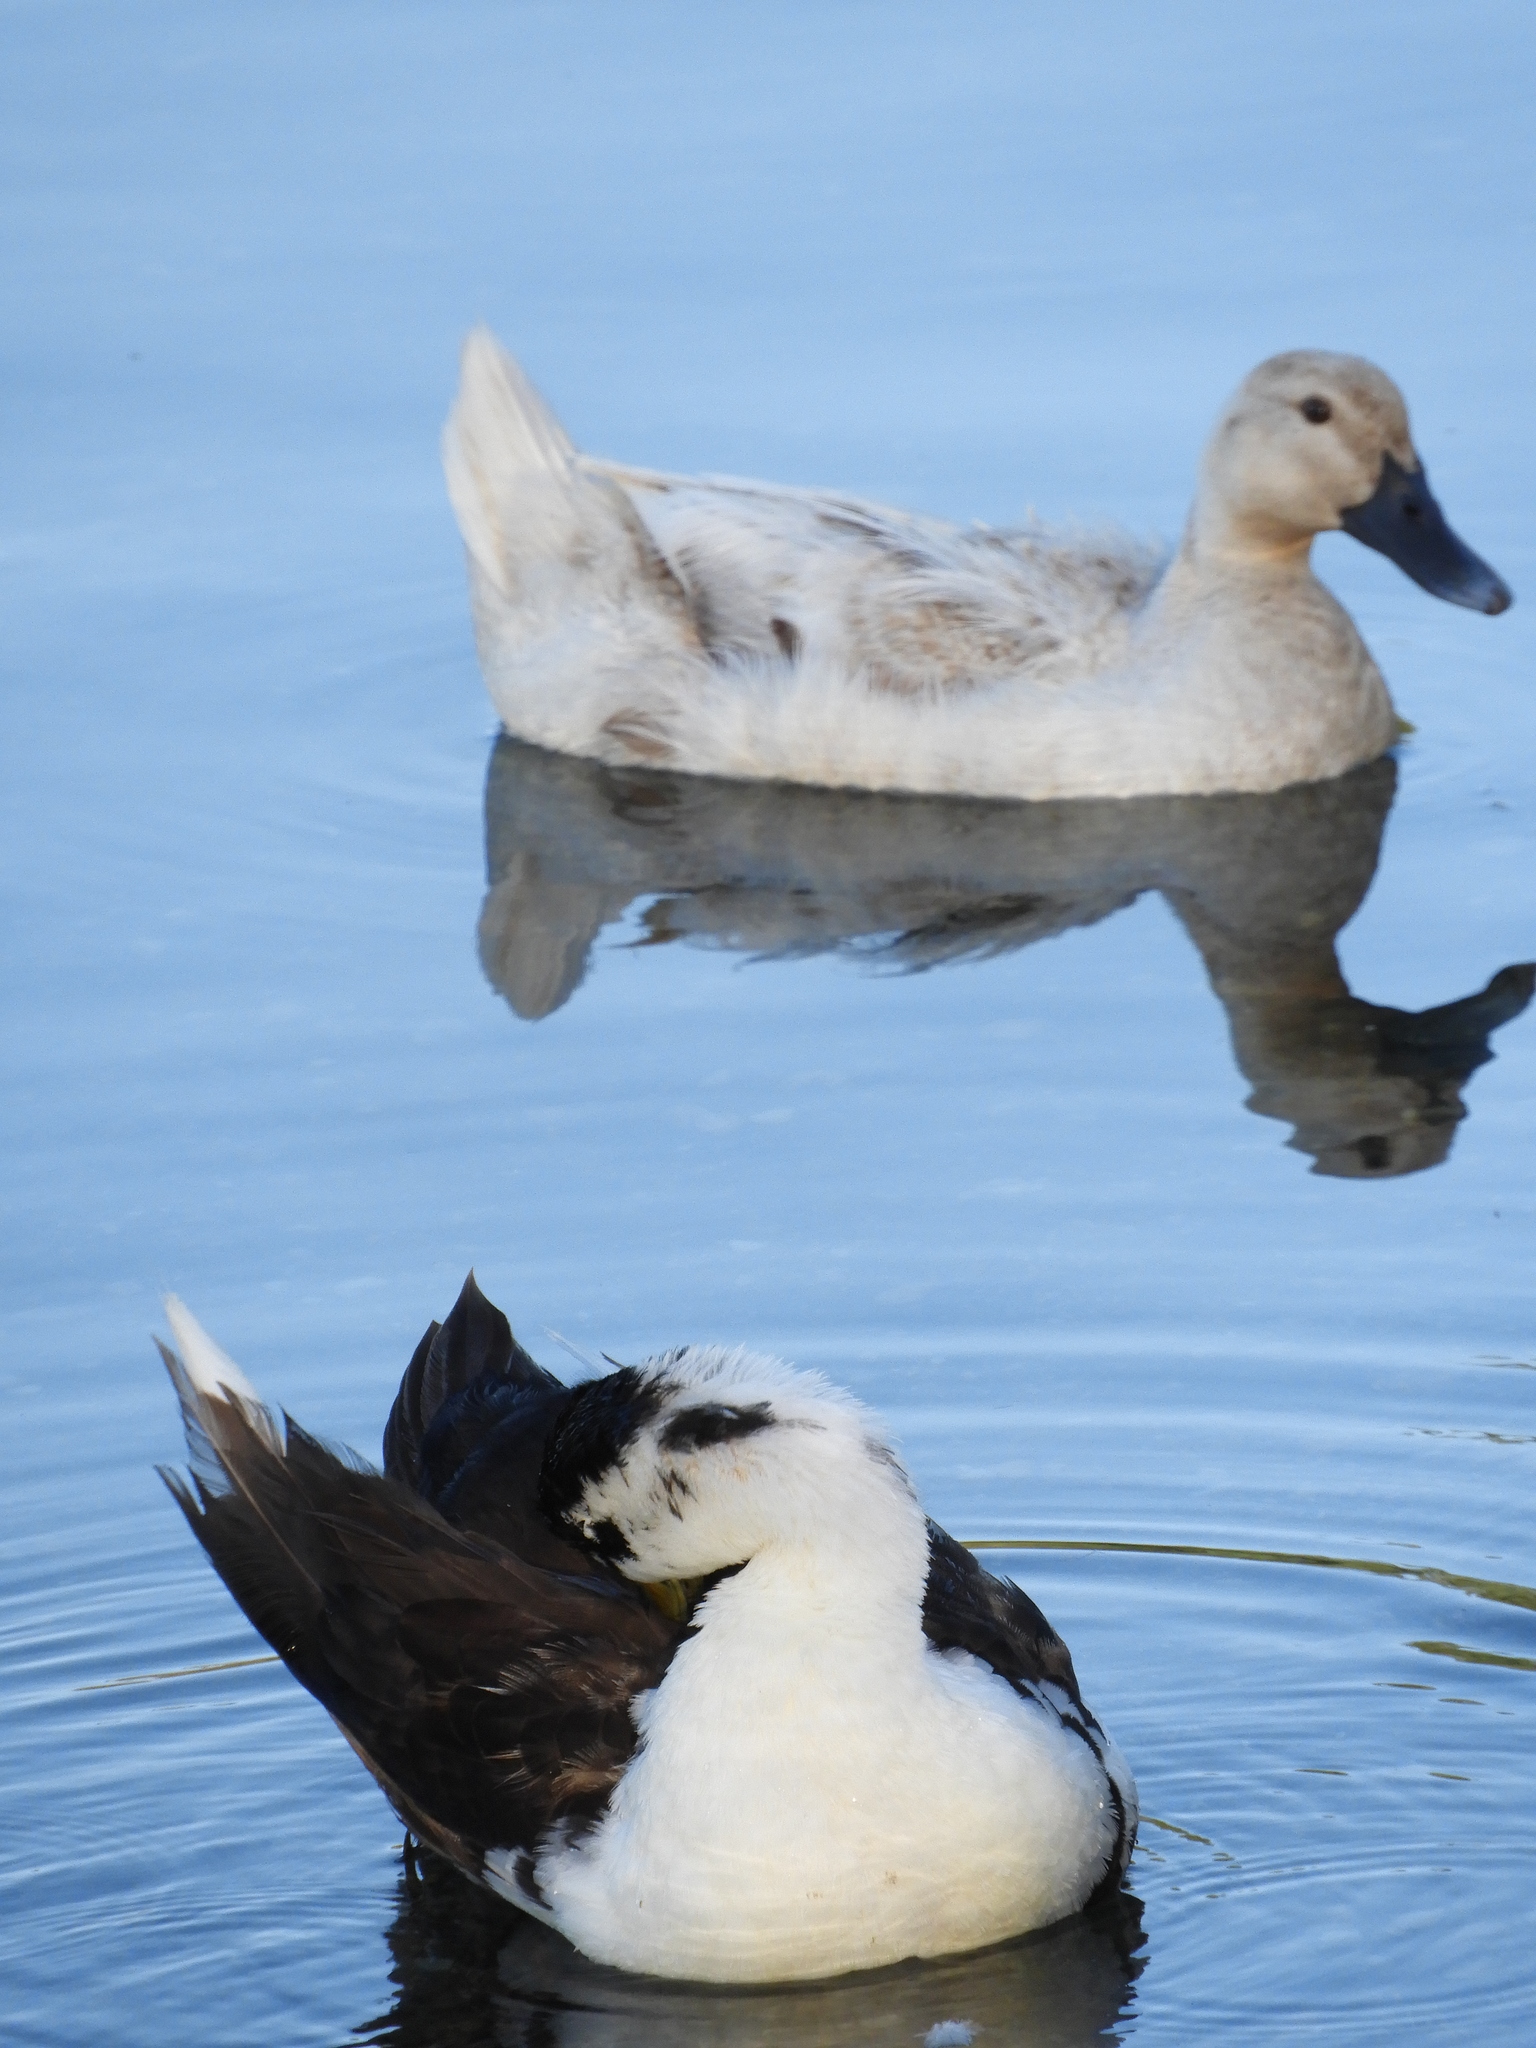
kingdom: Animalia
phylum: Chordata
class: Aves
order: Anseriformes
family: Anatidae
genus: Anas
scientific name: Anas platyrhynchos
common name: Mallard
